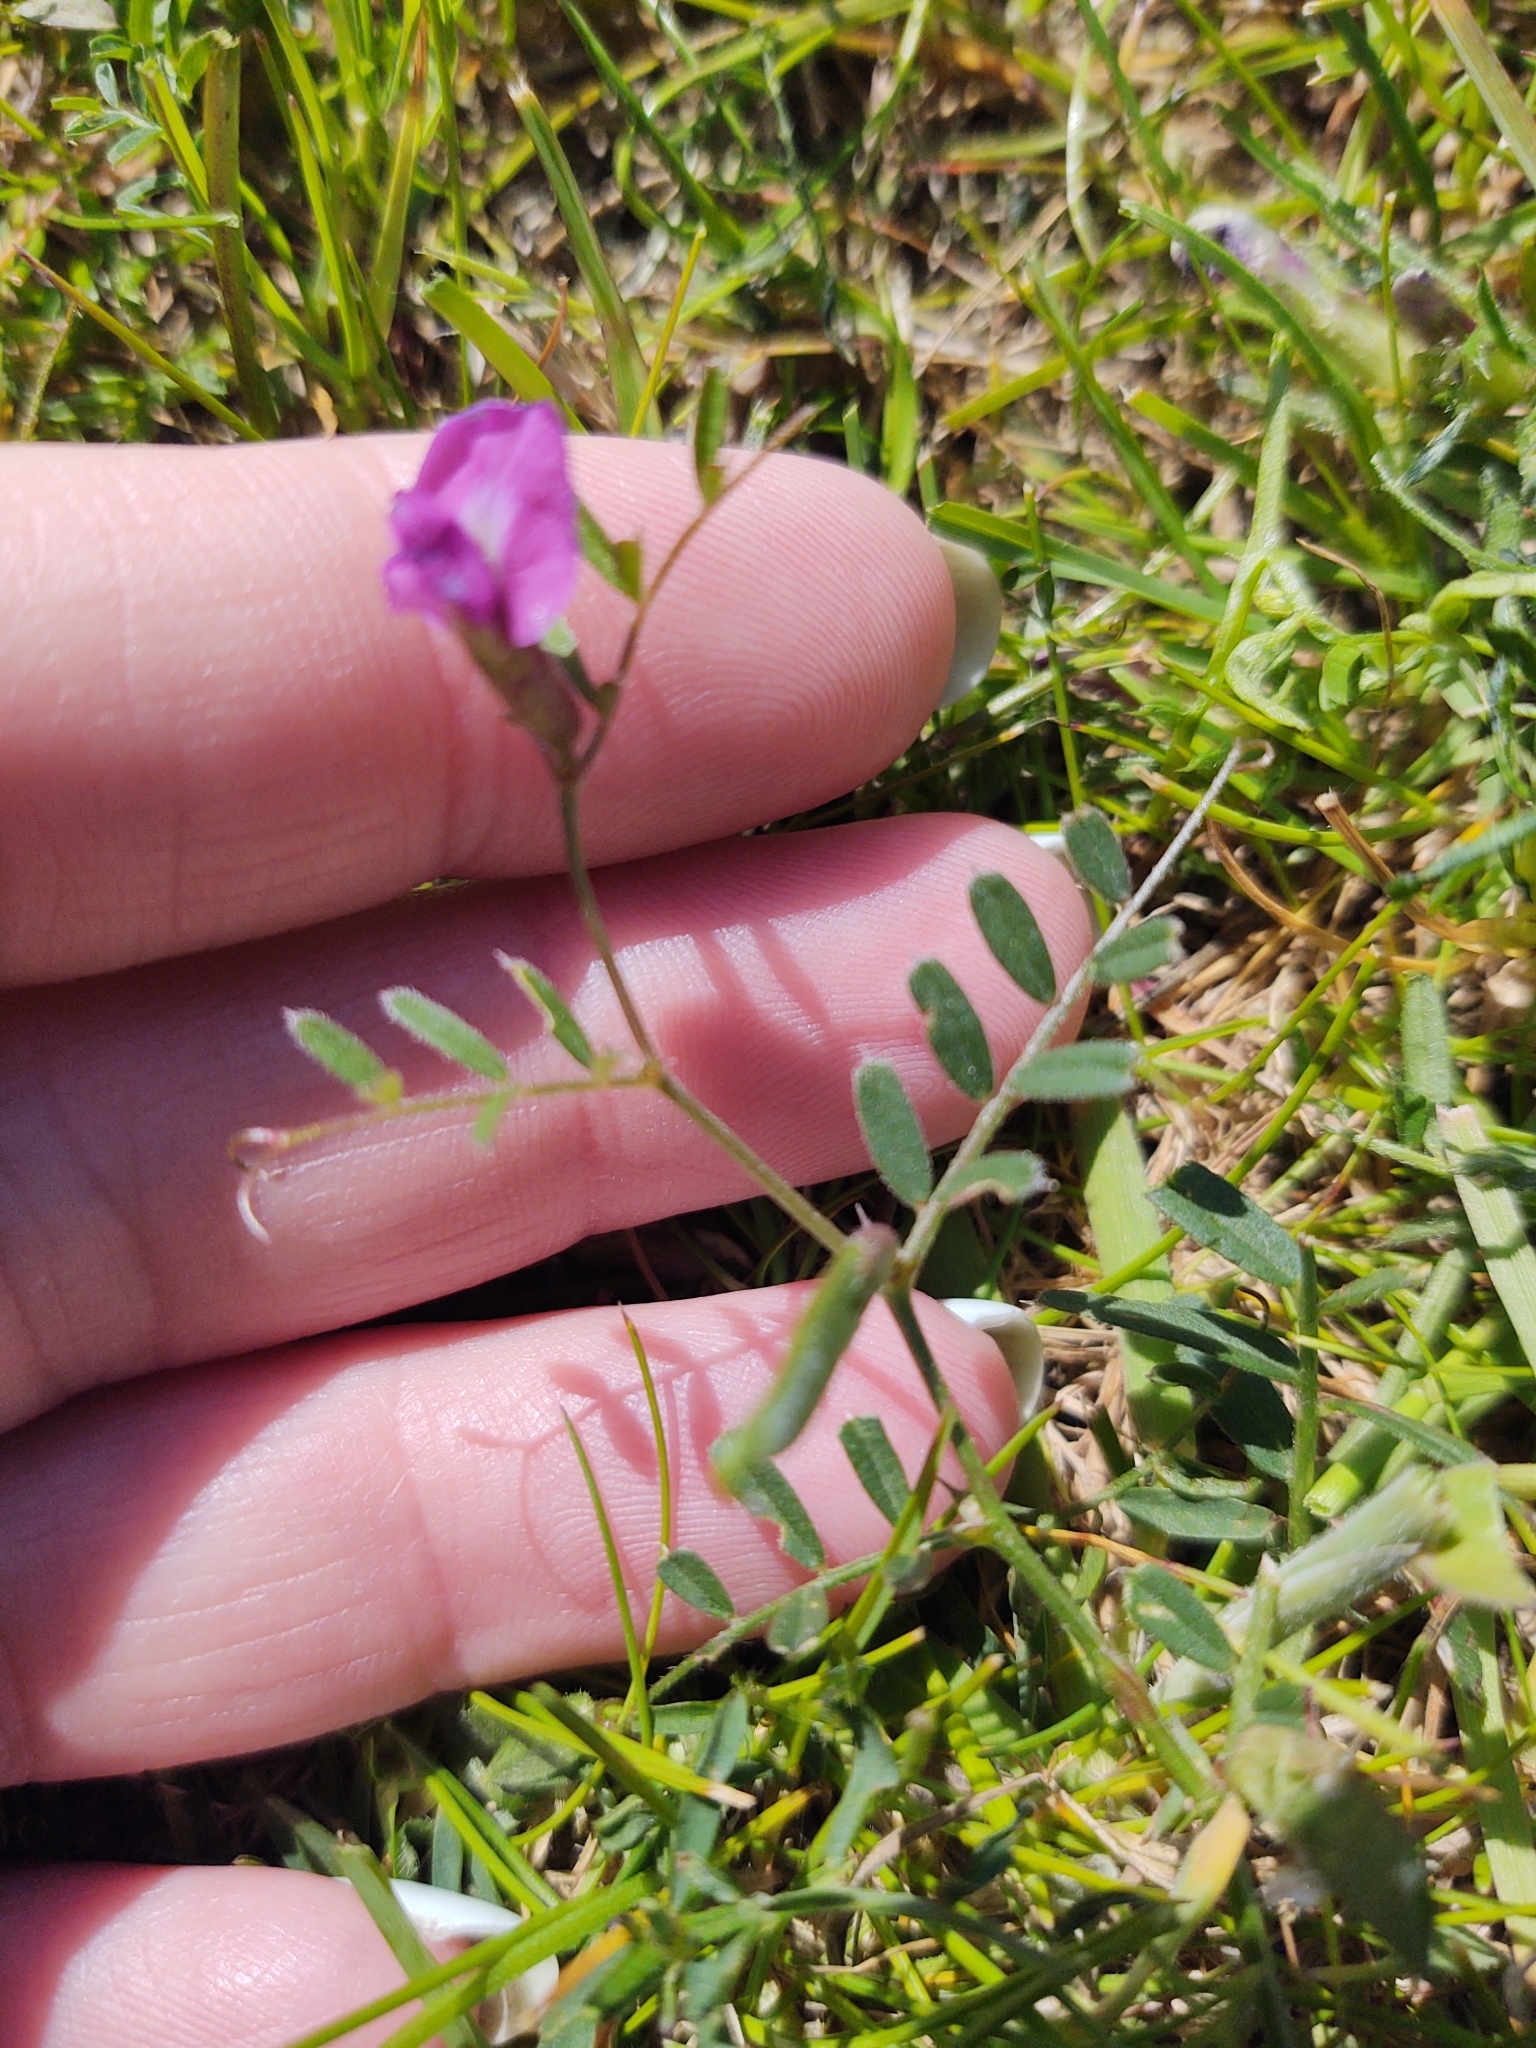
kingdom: Plantae
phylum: Tracheophyta
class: Magnoliopsida
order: Fabales
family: Fabaceae
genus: Vicia
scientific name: Vicia sativa
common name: Garden vetch
